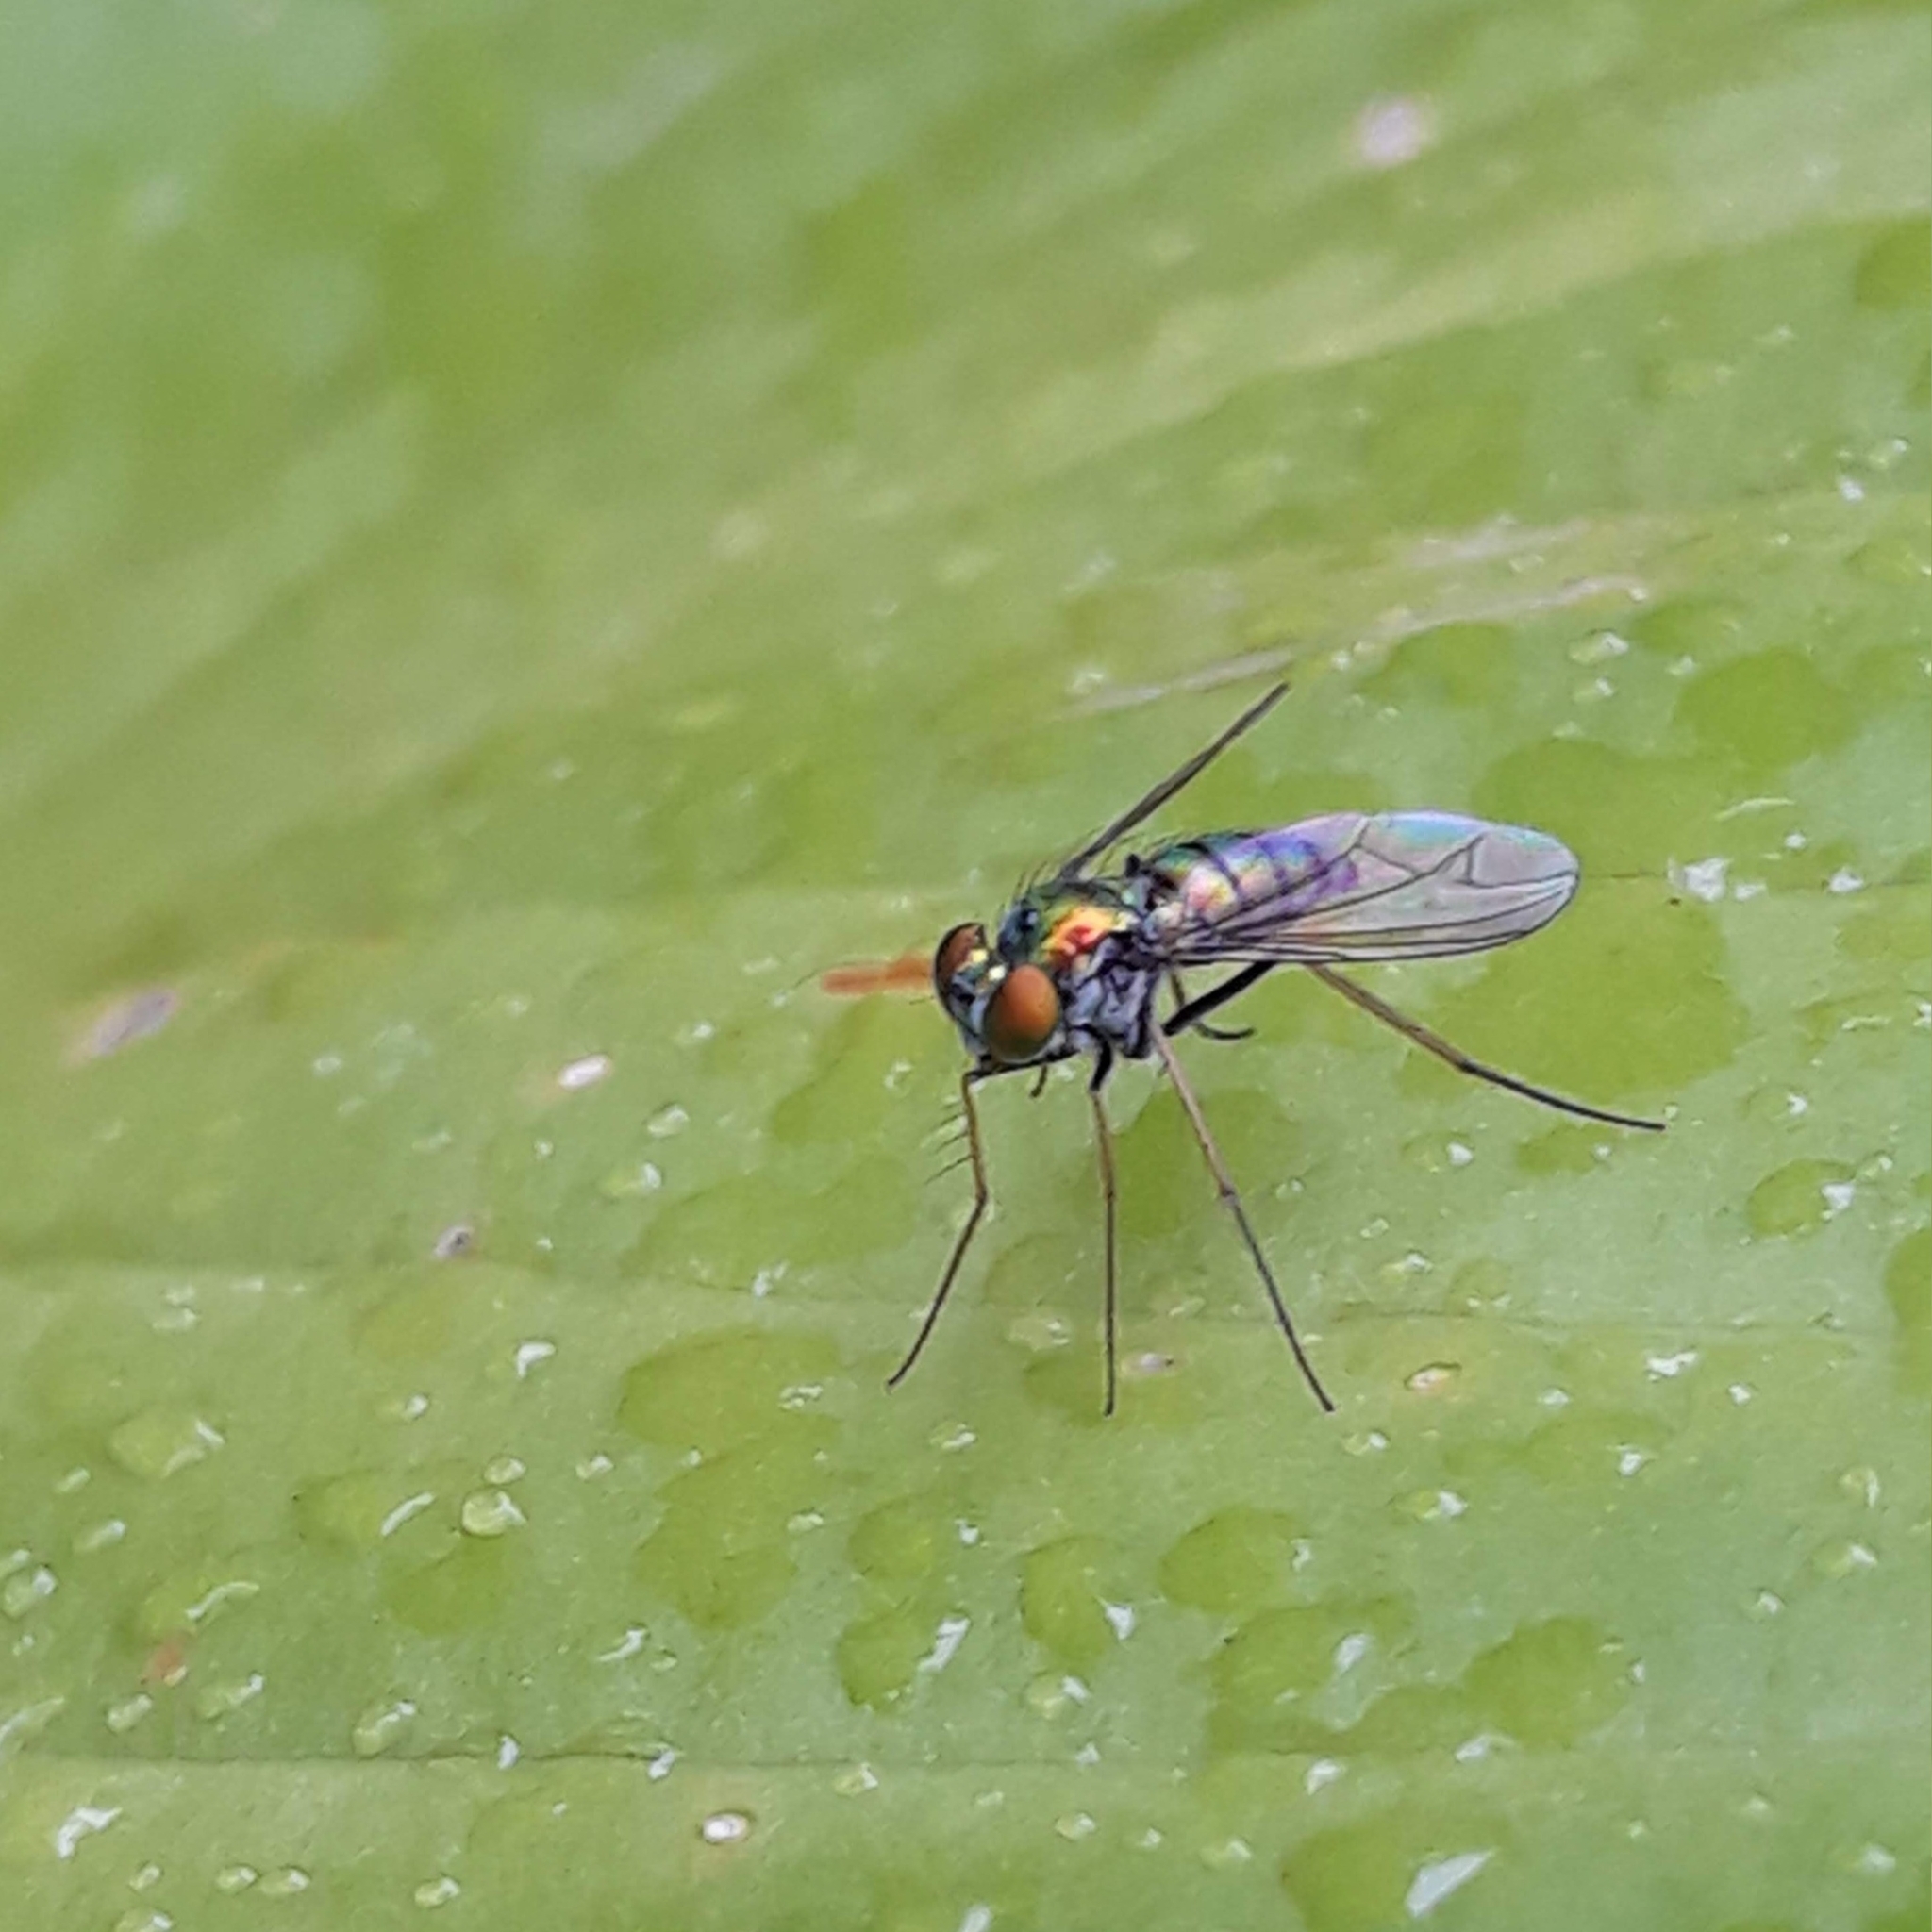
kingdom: Animalia
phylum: Arthropoda
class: Insecta
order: Diptera
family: Dolichopodidae
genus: Condylostylus
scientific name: Condylostylus
